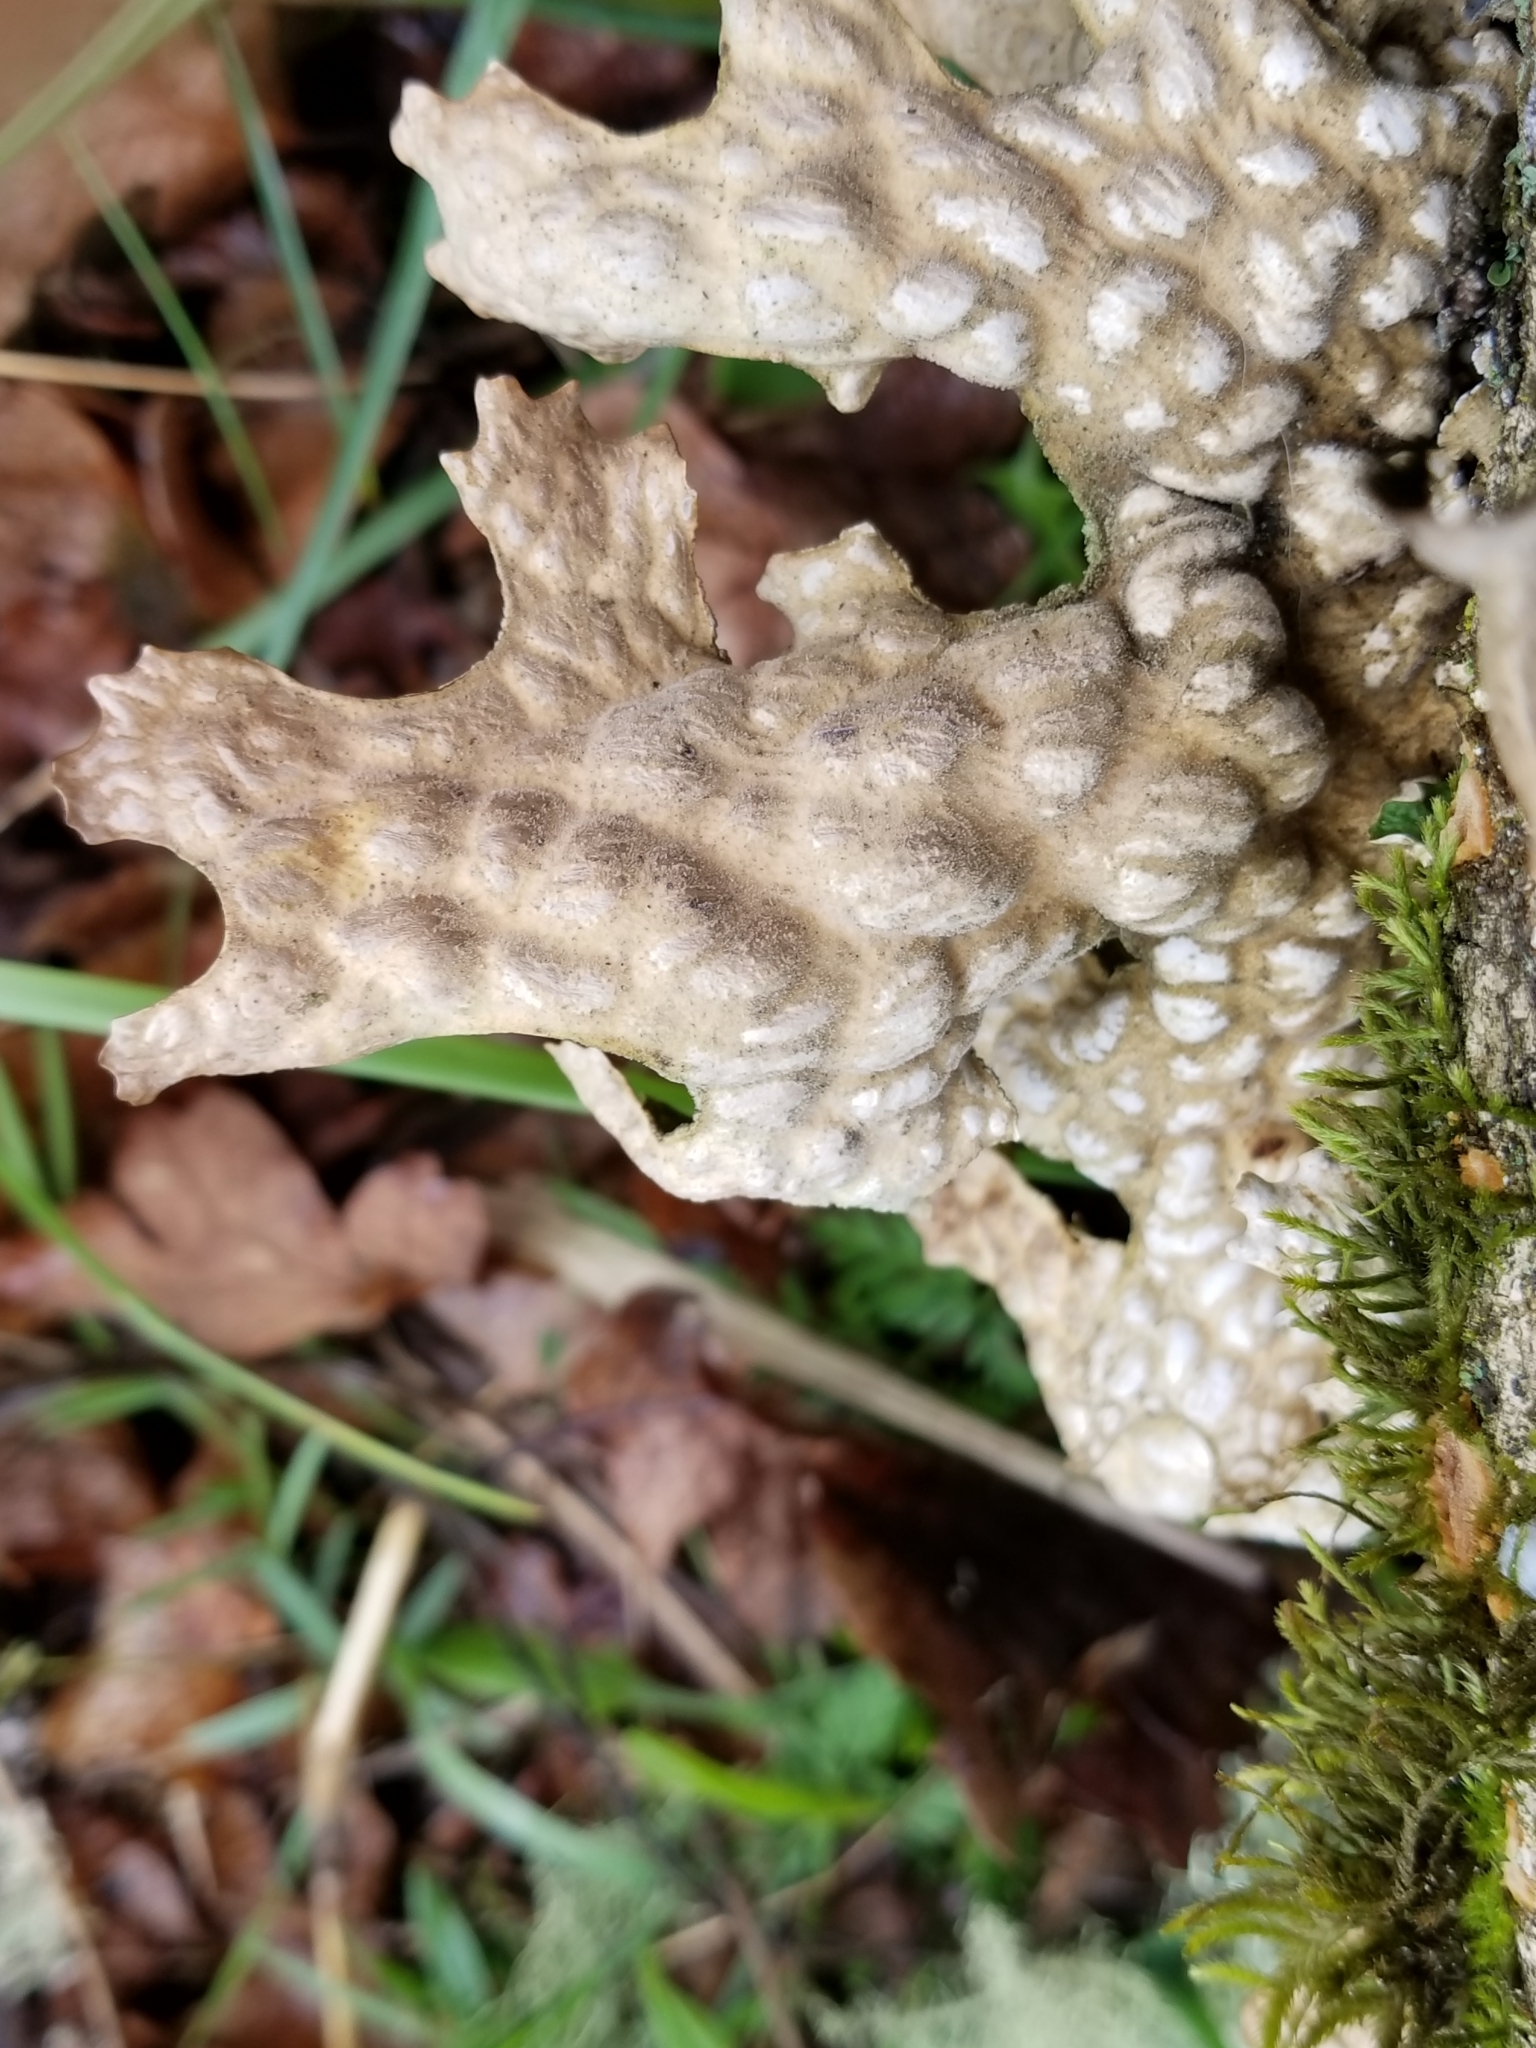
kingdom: Fungi
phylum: Ascomycota
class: Lecanoromycetes
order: Peltigerales
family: Lobariaceae
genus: Lobaria
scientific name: Lobaria pulmonaria
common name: Lungwort
